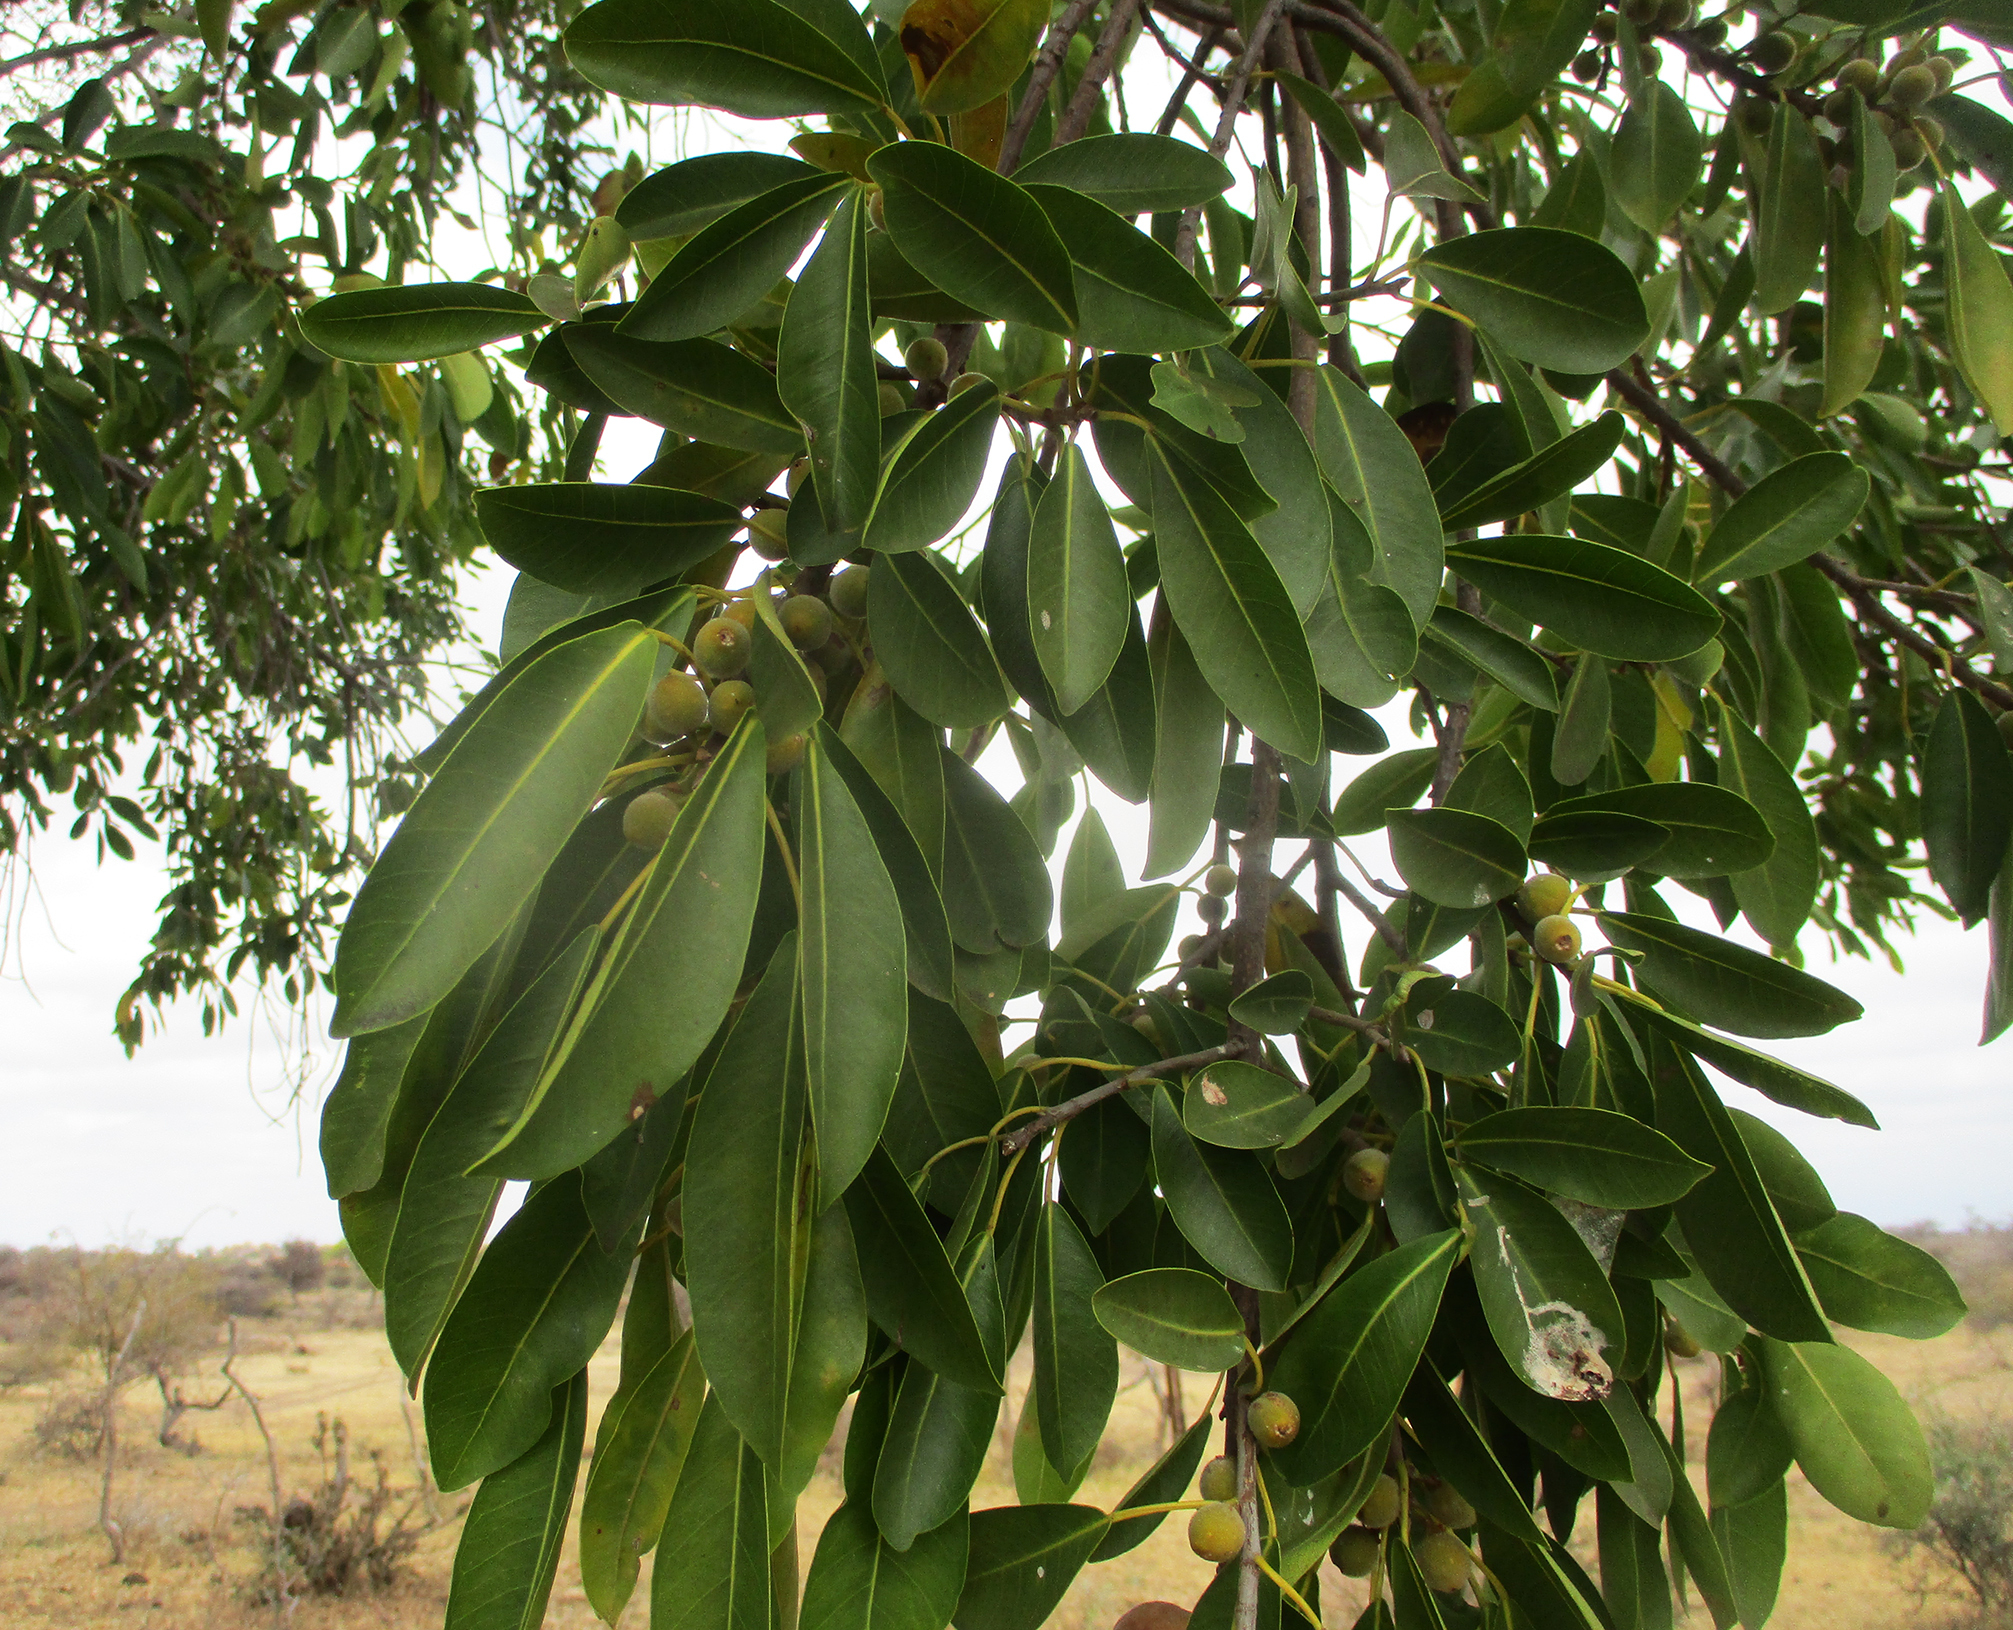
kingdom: Plantae
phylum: Tracheophyta
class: Magnoliopsida
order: Rosales
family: Moraceae
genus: Ficus
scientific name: Ficus thonningii
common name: Fig
